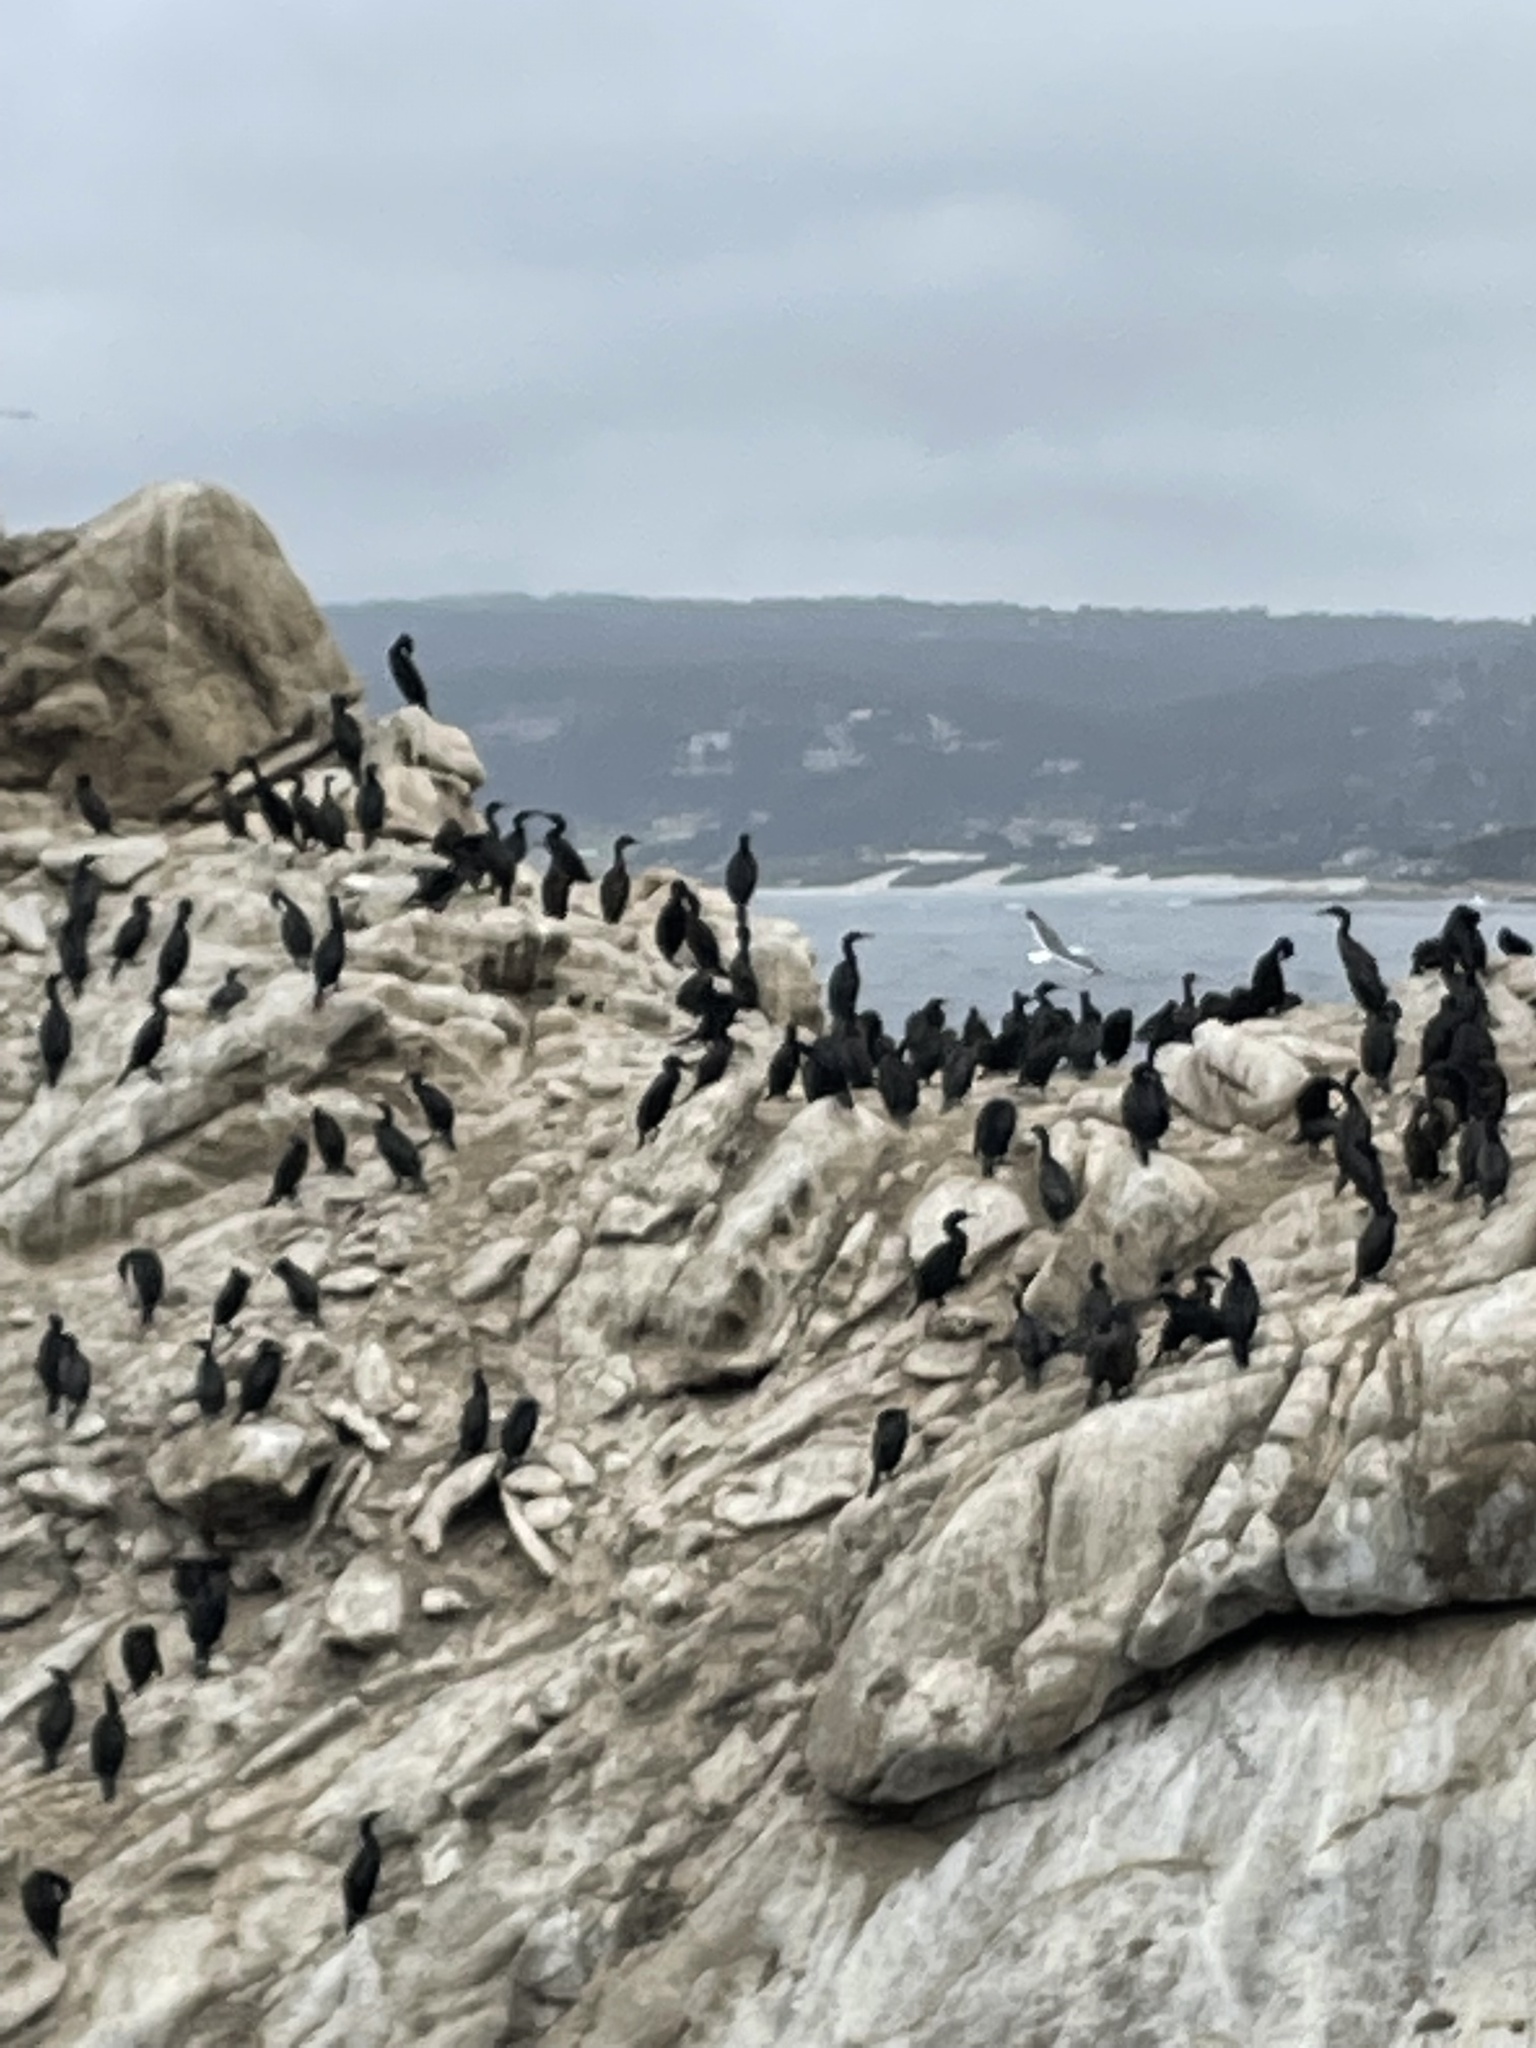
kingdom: Animalia
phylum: Chordata
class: Aves
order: Suliformes
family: Phalacrocoracidae
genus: Urile
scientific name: Urile penicillatus
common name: Brandt's cormorant
